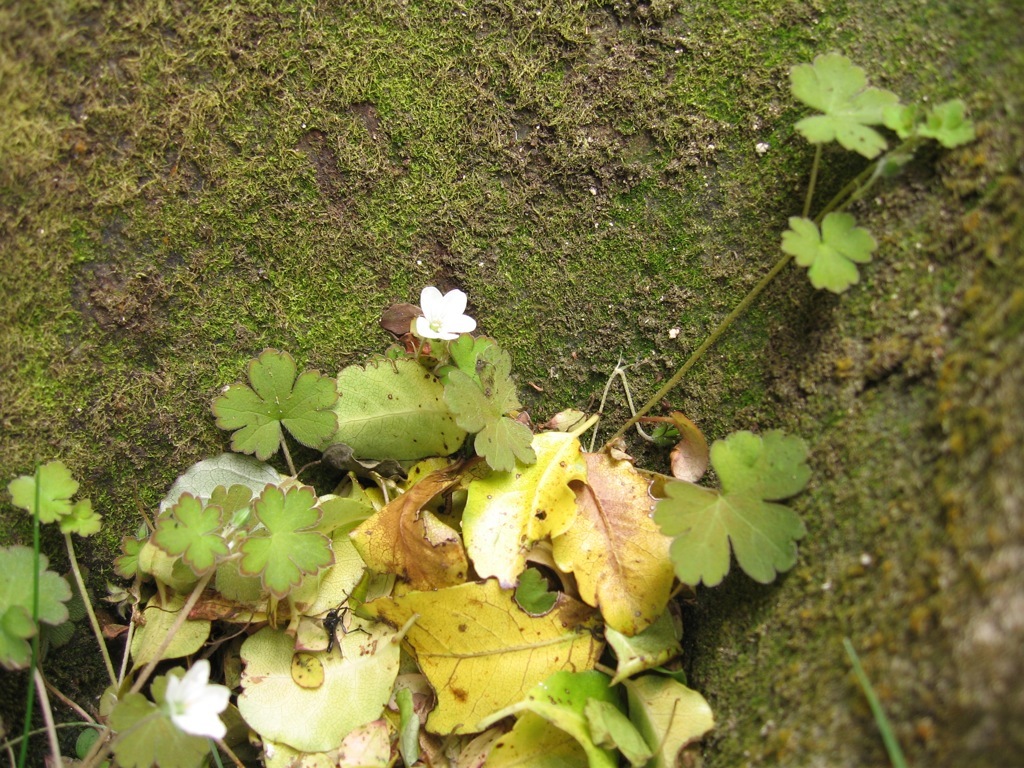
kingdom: Plantae
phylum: Tracheophyta
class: Magnoliopsida
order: Geraniales
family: Geraniaceae
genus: Geranium
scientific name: Geranium
